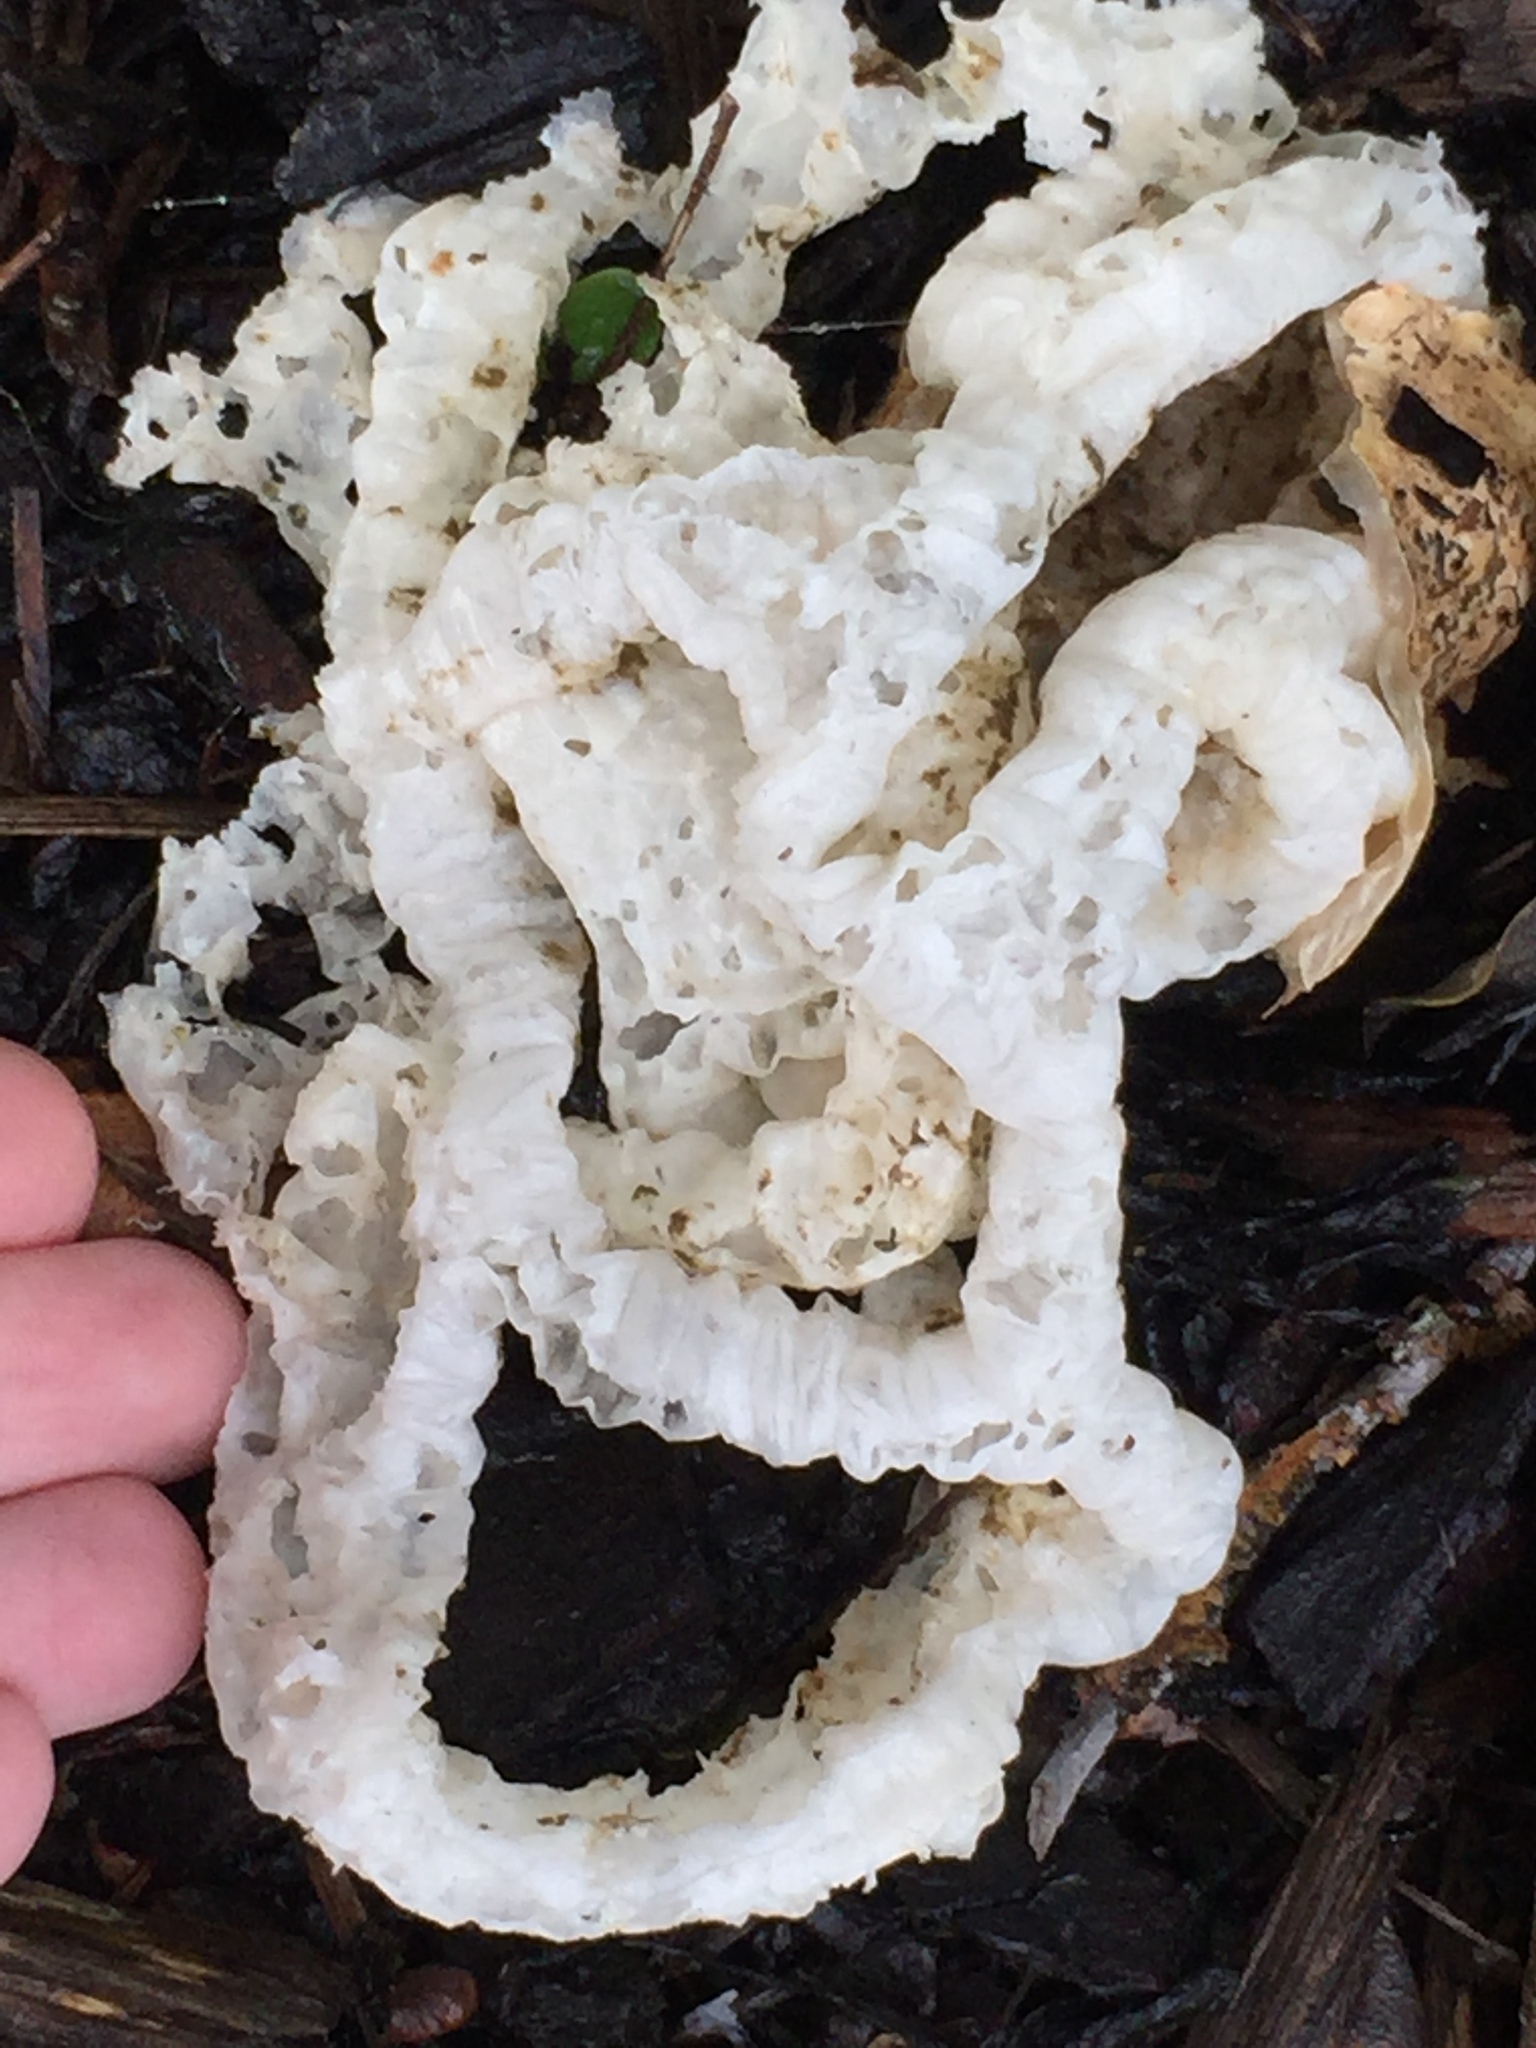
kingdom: Fungi
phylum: Basidiomycota
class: Agaricomycetes
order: Phallales
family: Phallaceae
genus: Ileodictyon
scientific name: Ileodictyon cibarium
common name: Basket fungus
